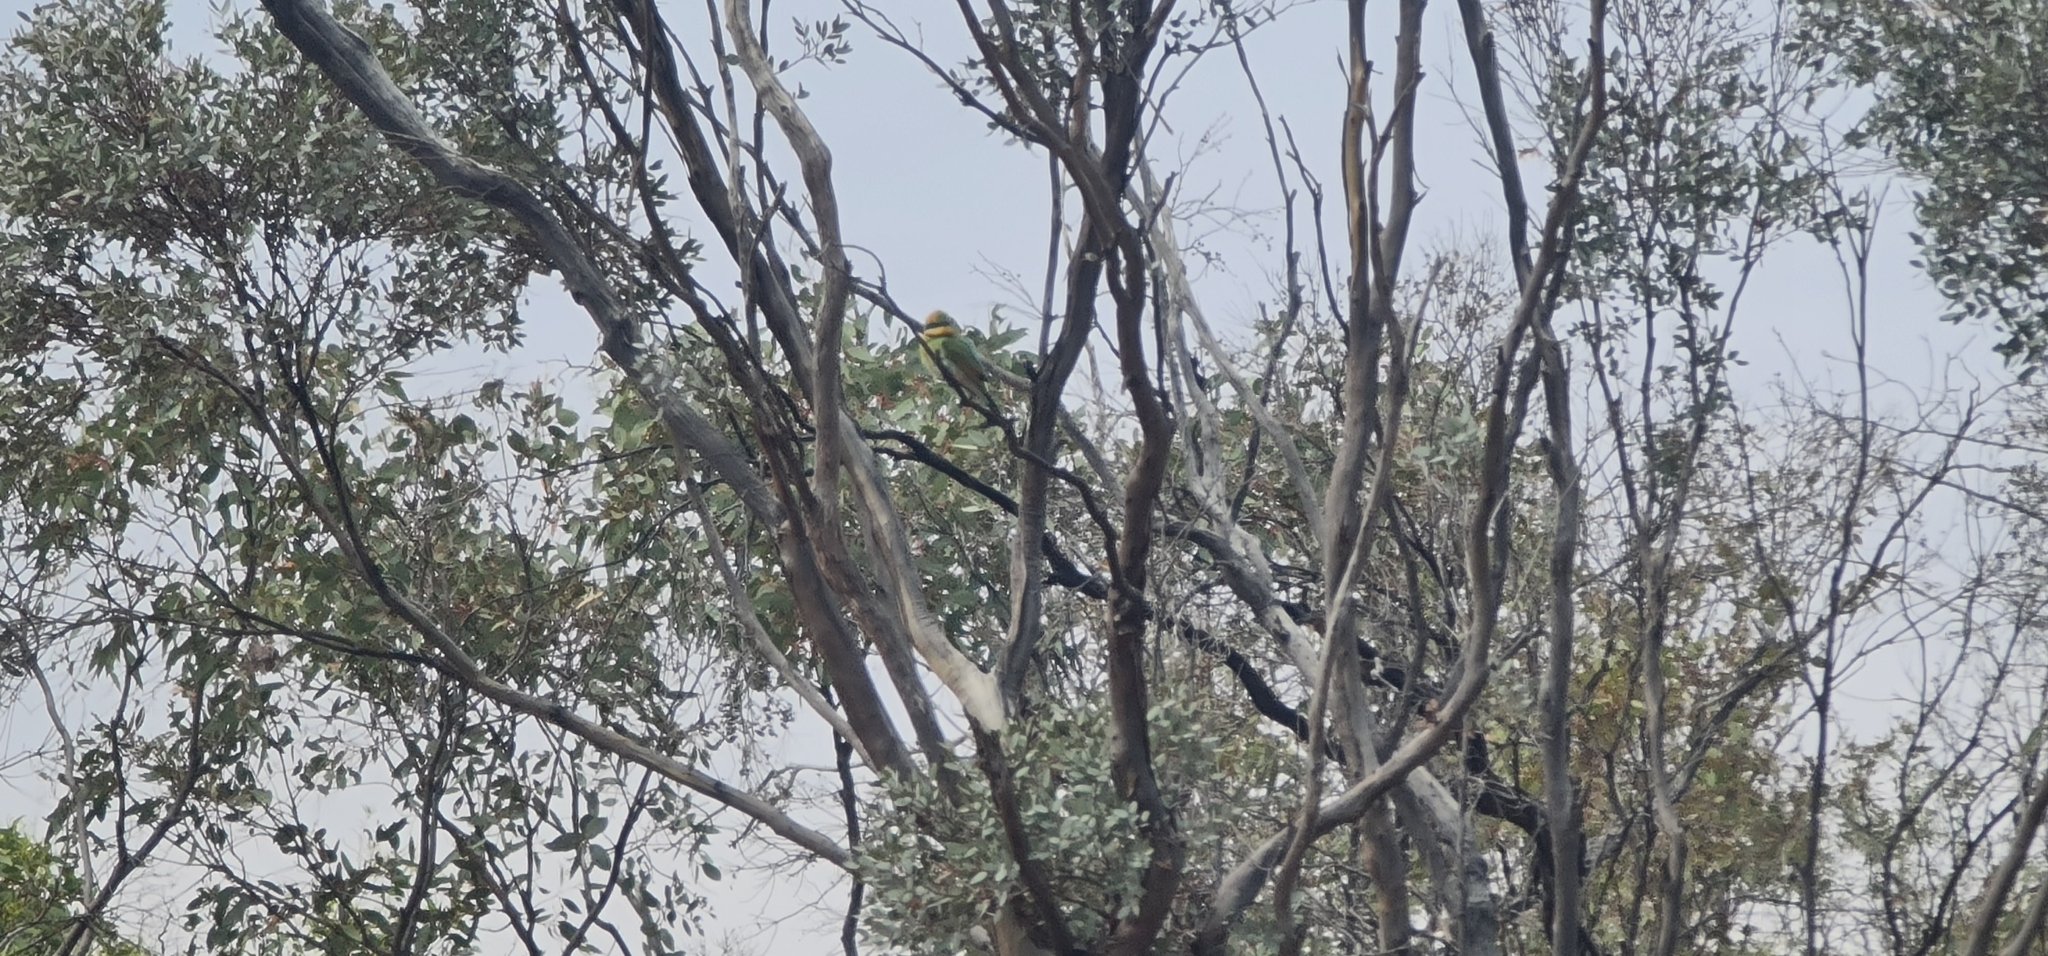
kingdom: Animalia
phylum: Chordata
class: Aves
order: Coraciiformes
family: Meropidae
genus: Merops
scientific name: Merops ornatus
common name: Rainbow bee-eater
